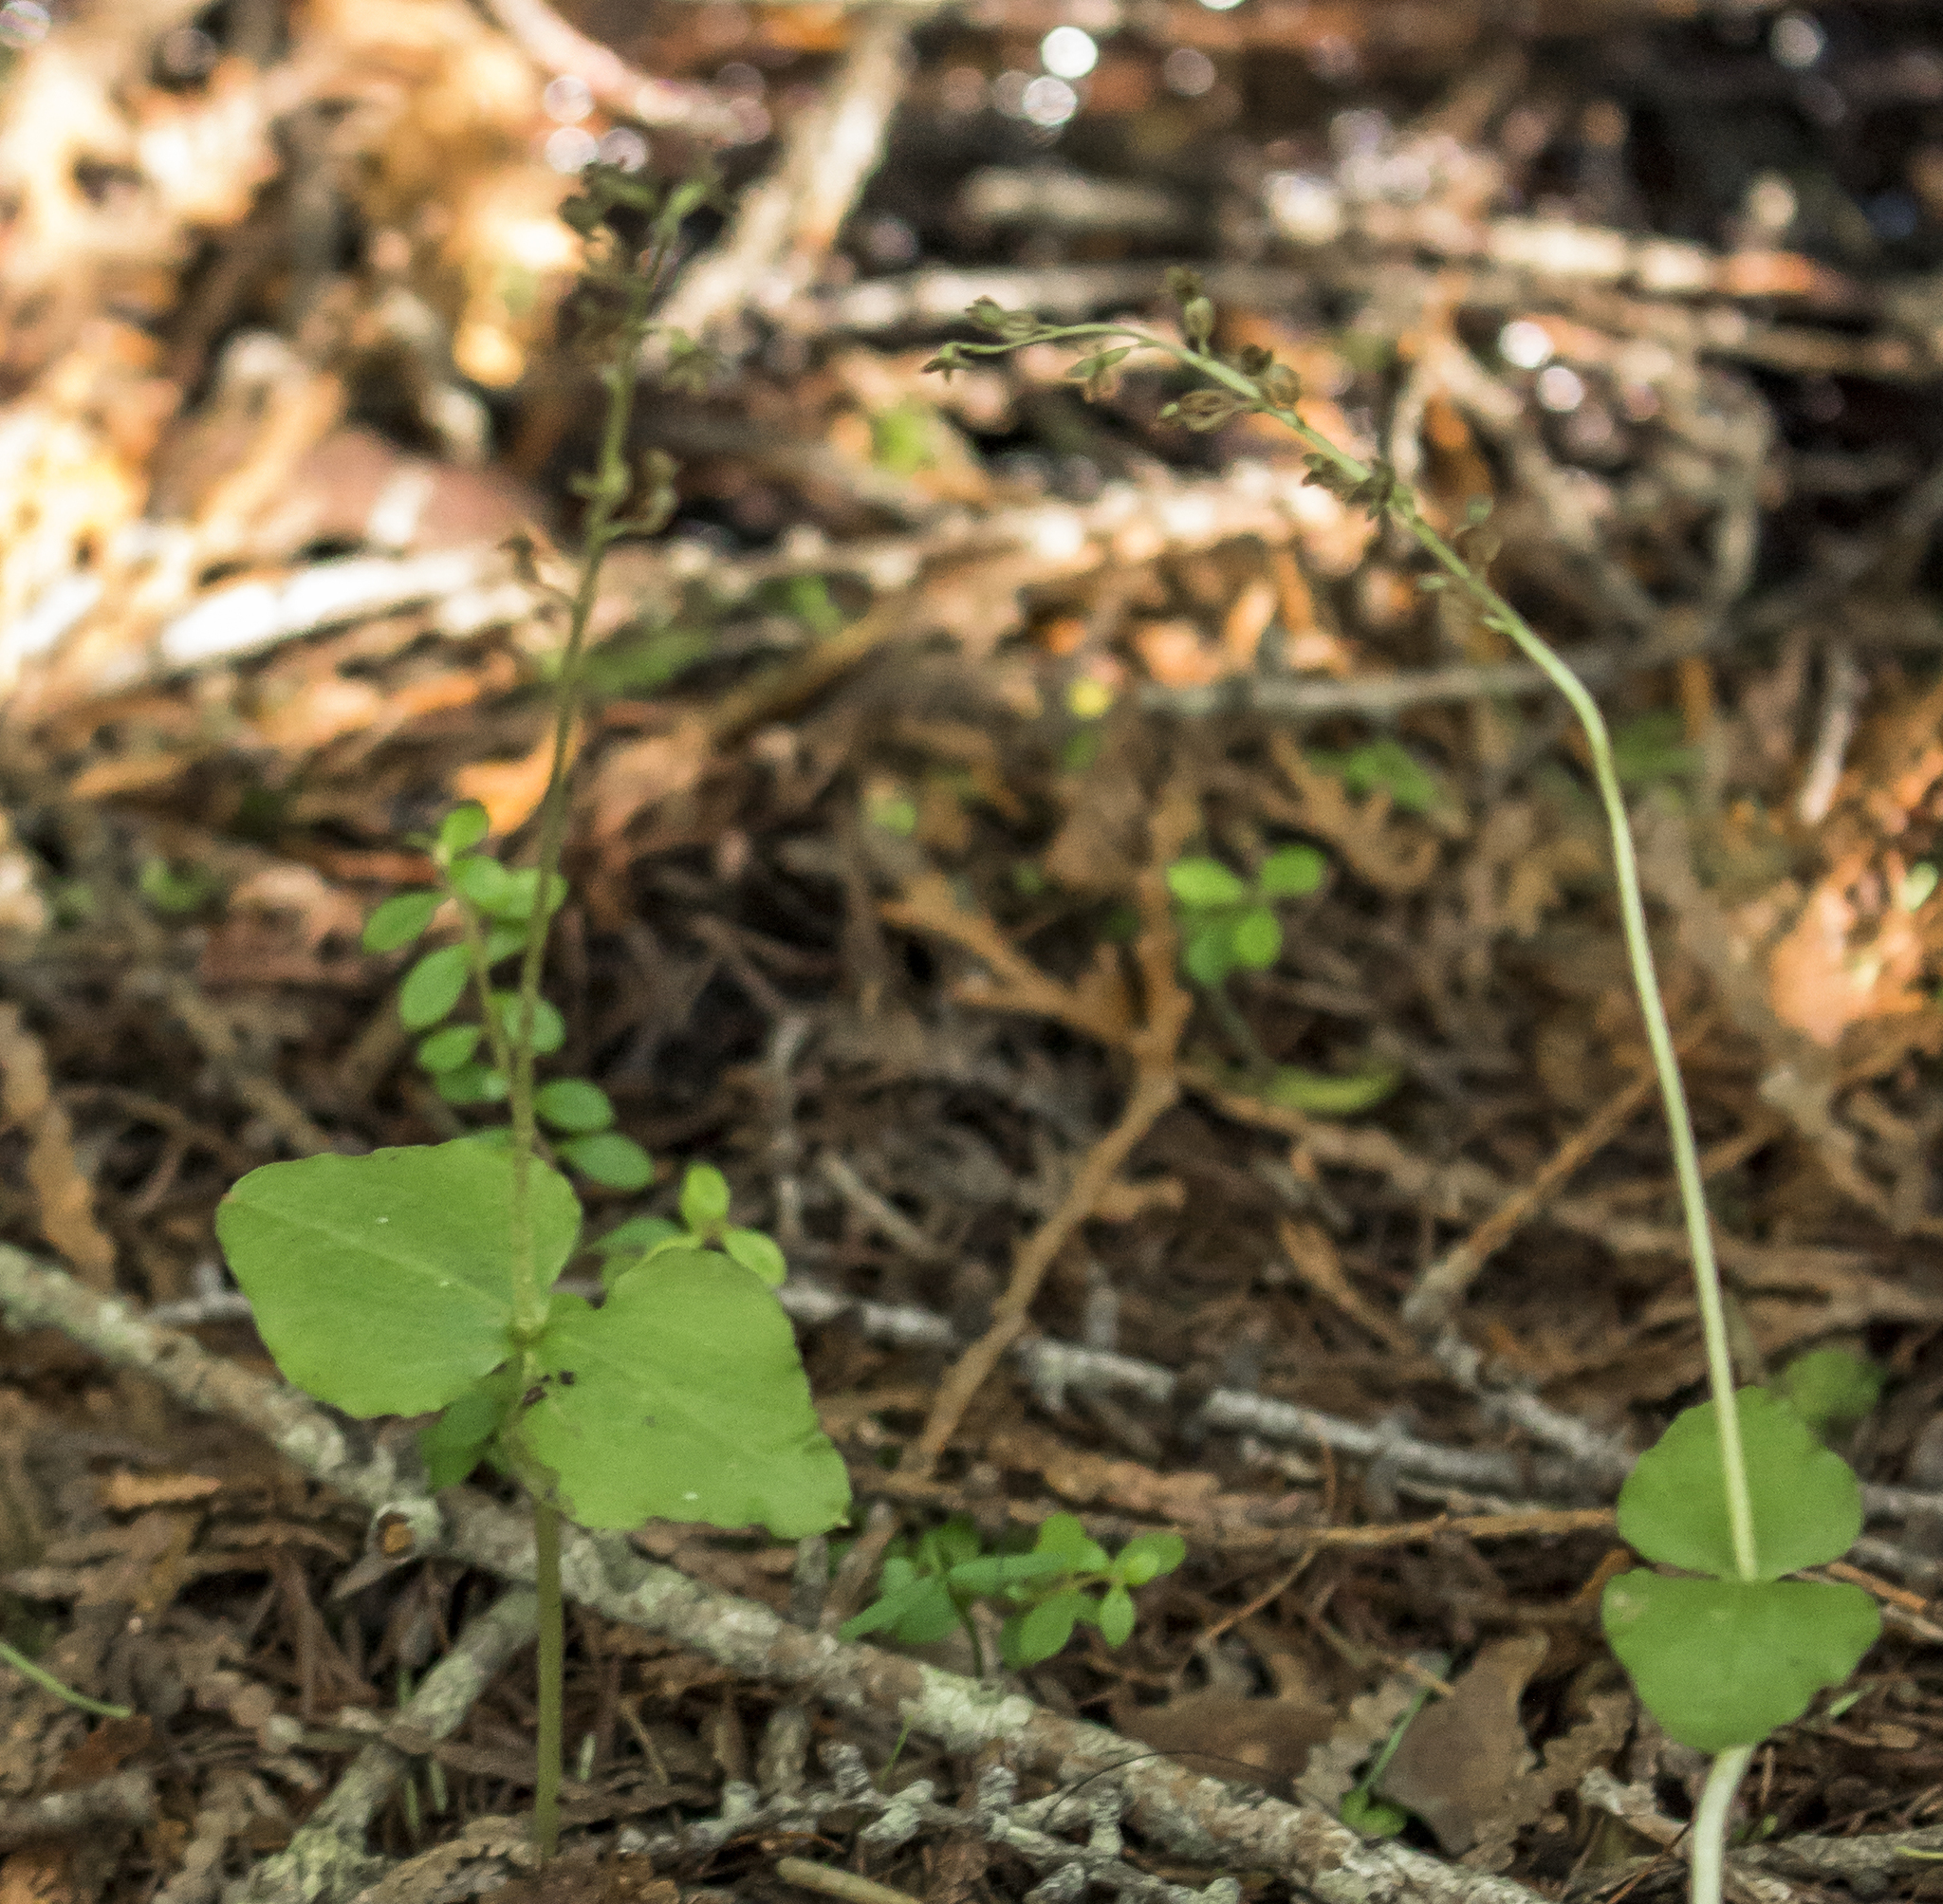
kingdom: Plantae
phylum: Tracheophyta
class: Liliopsida
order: Asparagales
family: Orchidaceae
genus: Neottia
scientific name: Neottia cordata
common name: Lesser twayblade
